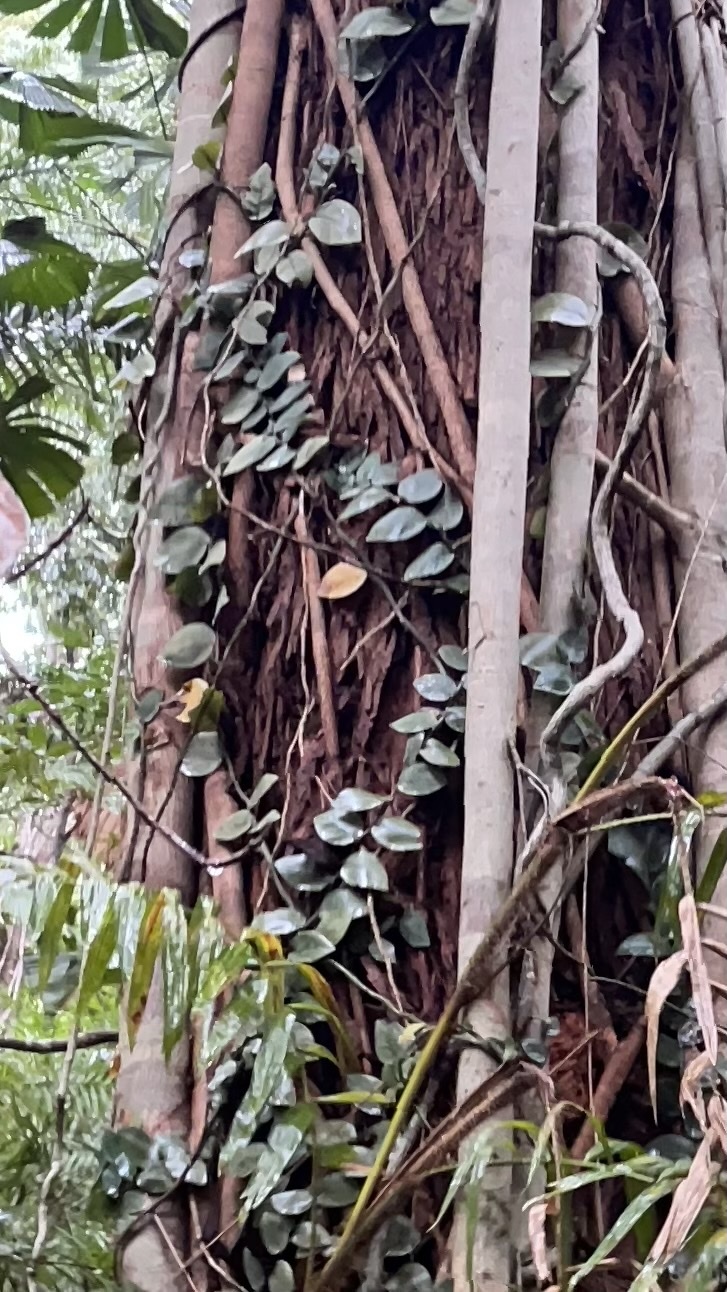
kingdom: Plantae
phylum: Tracheophyta
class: Liliopsida
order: Alismatales
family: Araceae
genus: Rhaphidophora
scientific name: Rhaphidophora hayi
